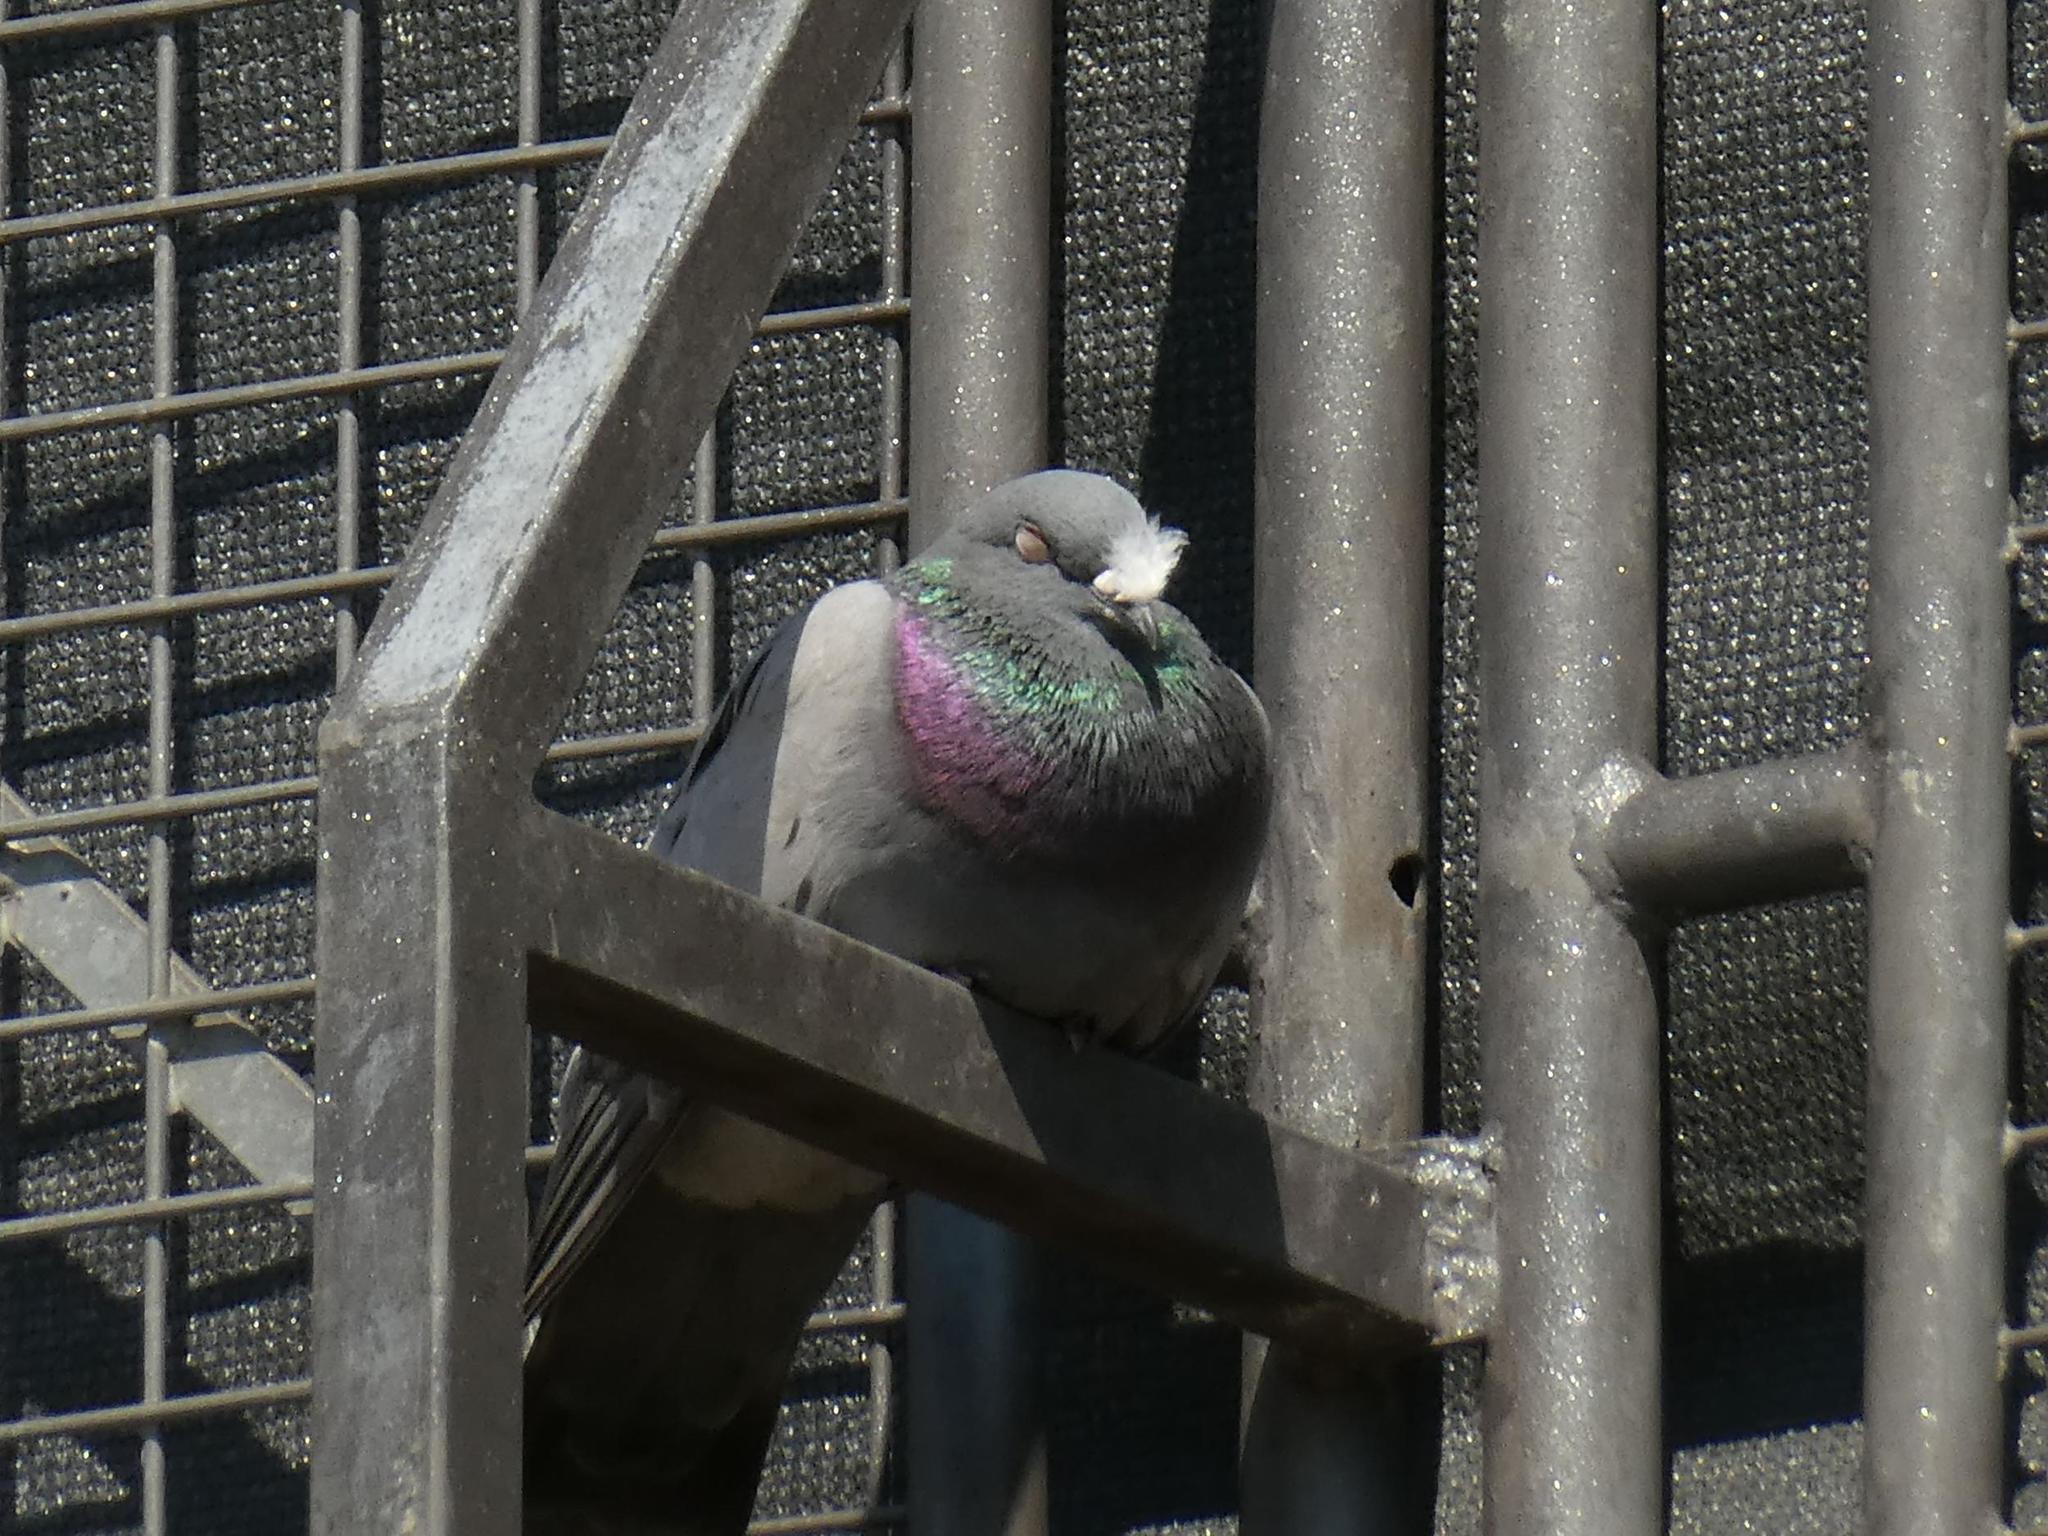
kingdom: Animalia
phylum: Chordata
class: Aves
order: Columbiformes
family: Columbidae
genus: Columba
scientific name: Columba livia
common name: Rock pigeon
